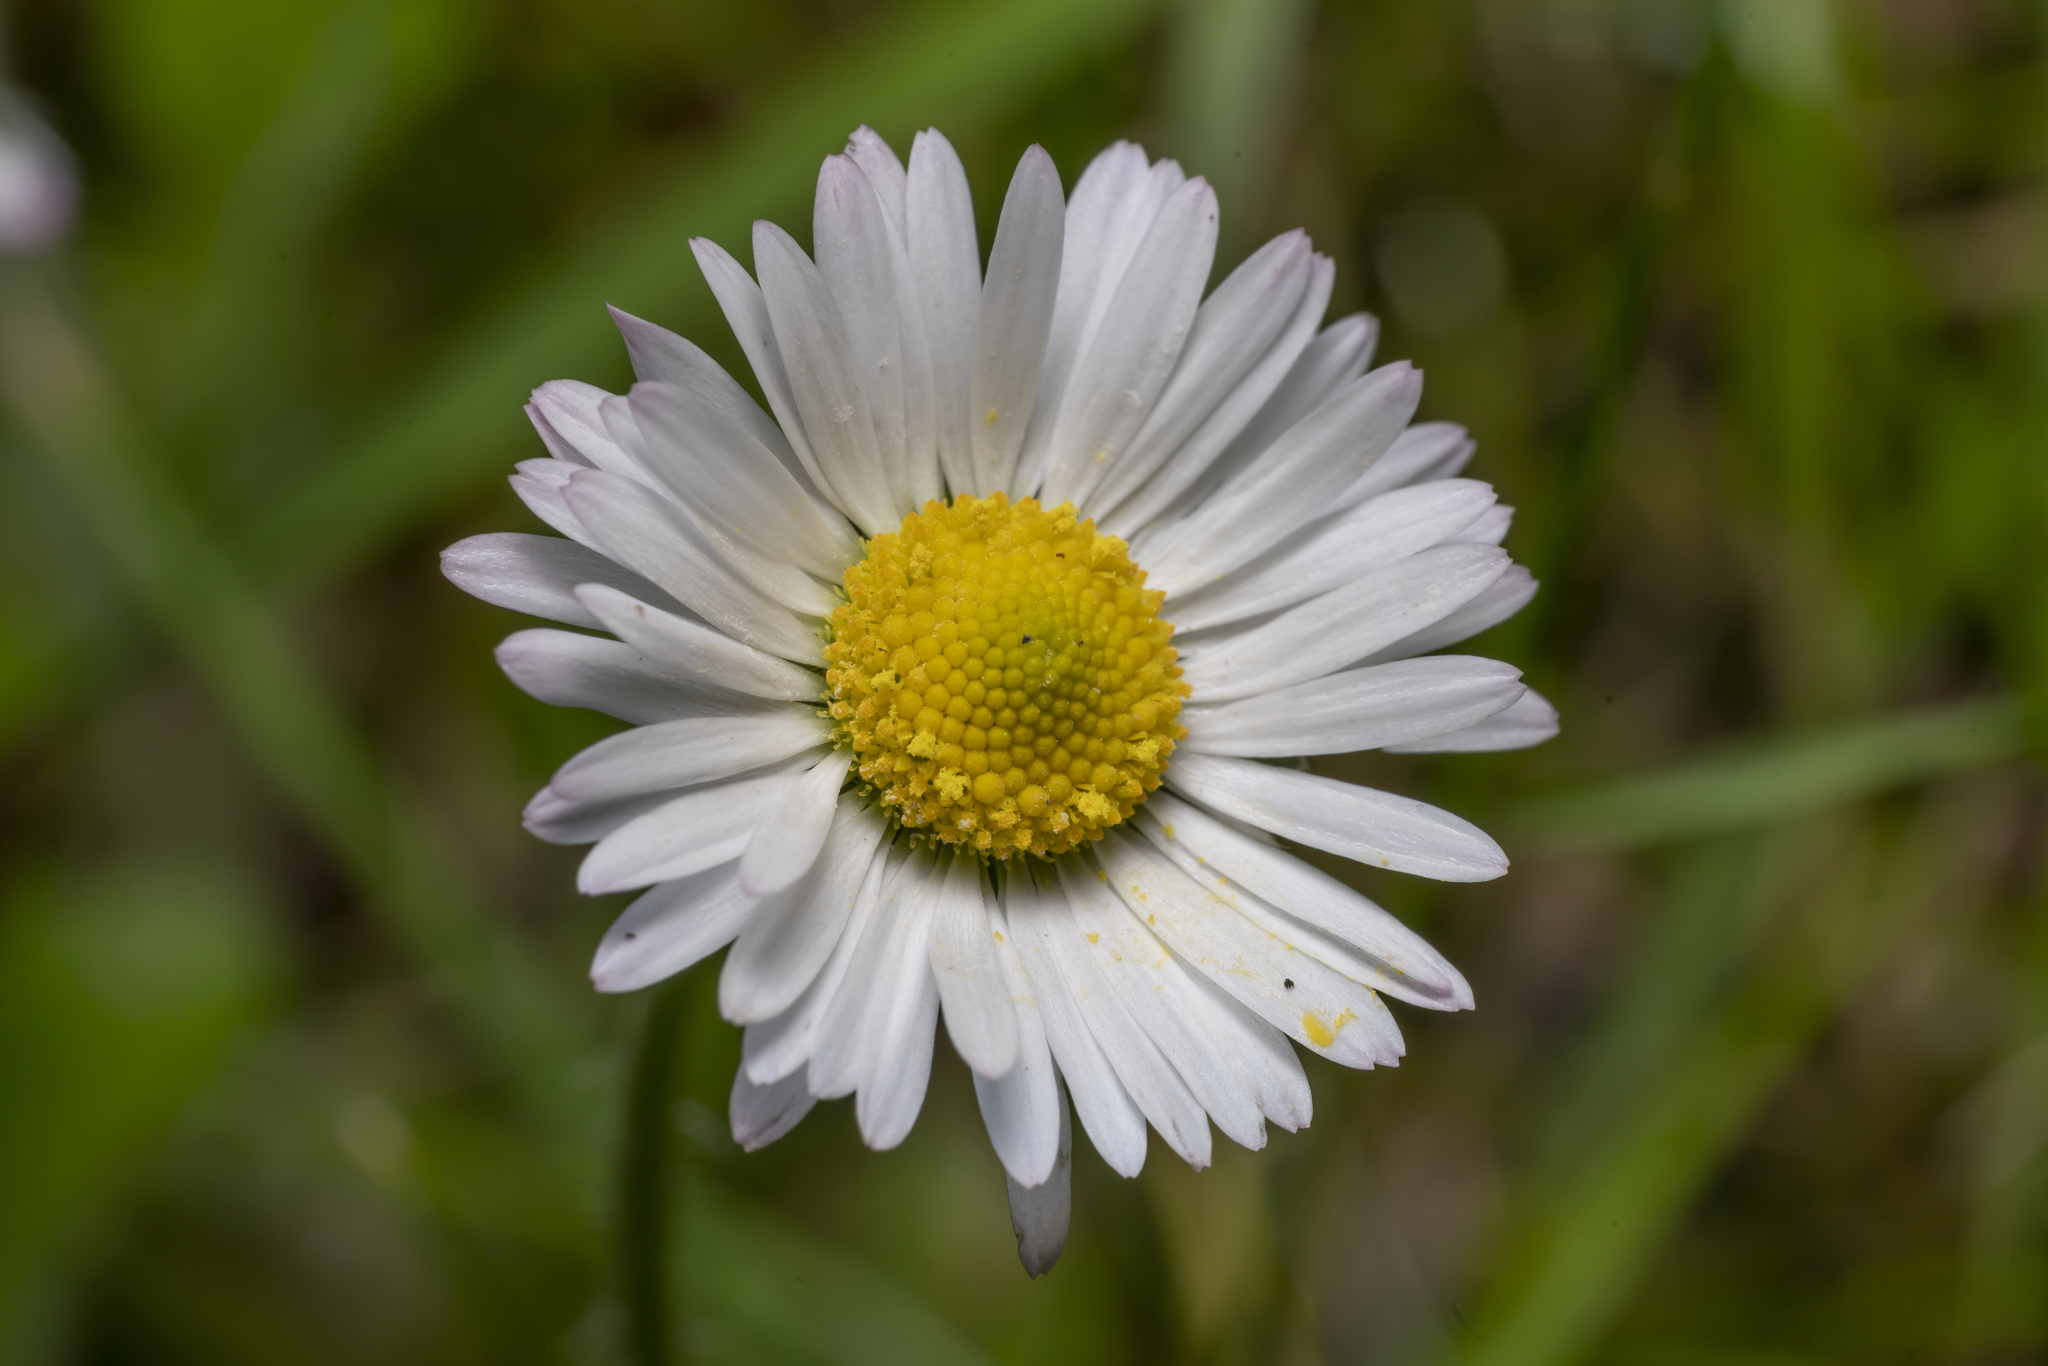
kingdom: Plantae
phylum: Tracheophyta
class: Magnoliopsida
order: Asterales
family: Asteraceae
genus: Bellis
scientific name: Bellis perennis
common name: Lawndaisy
